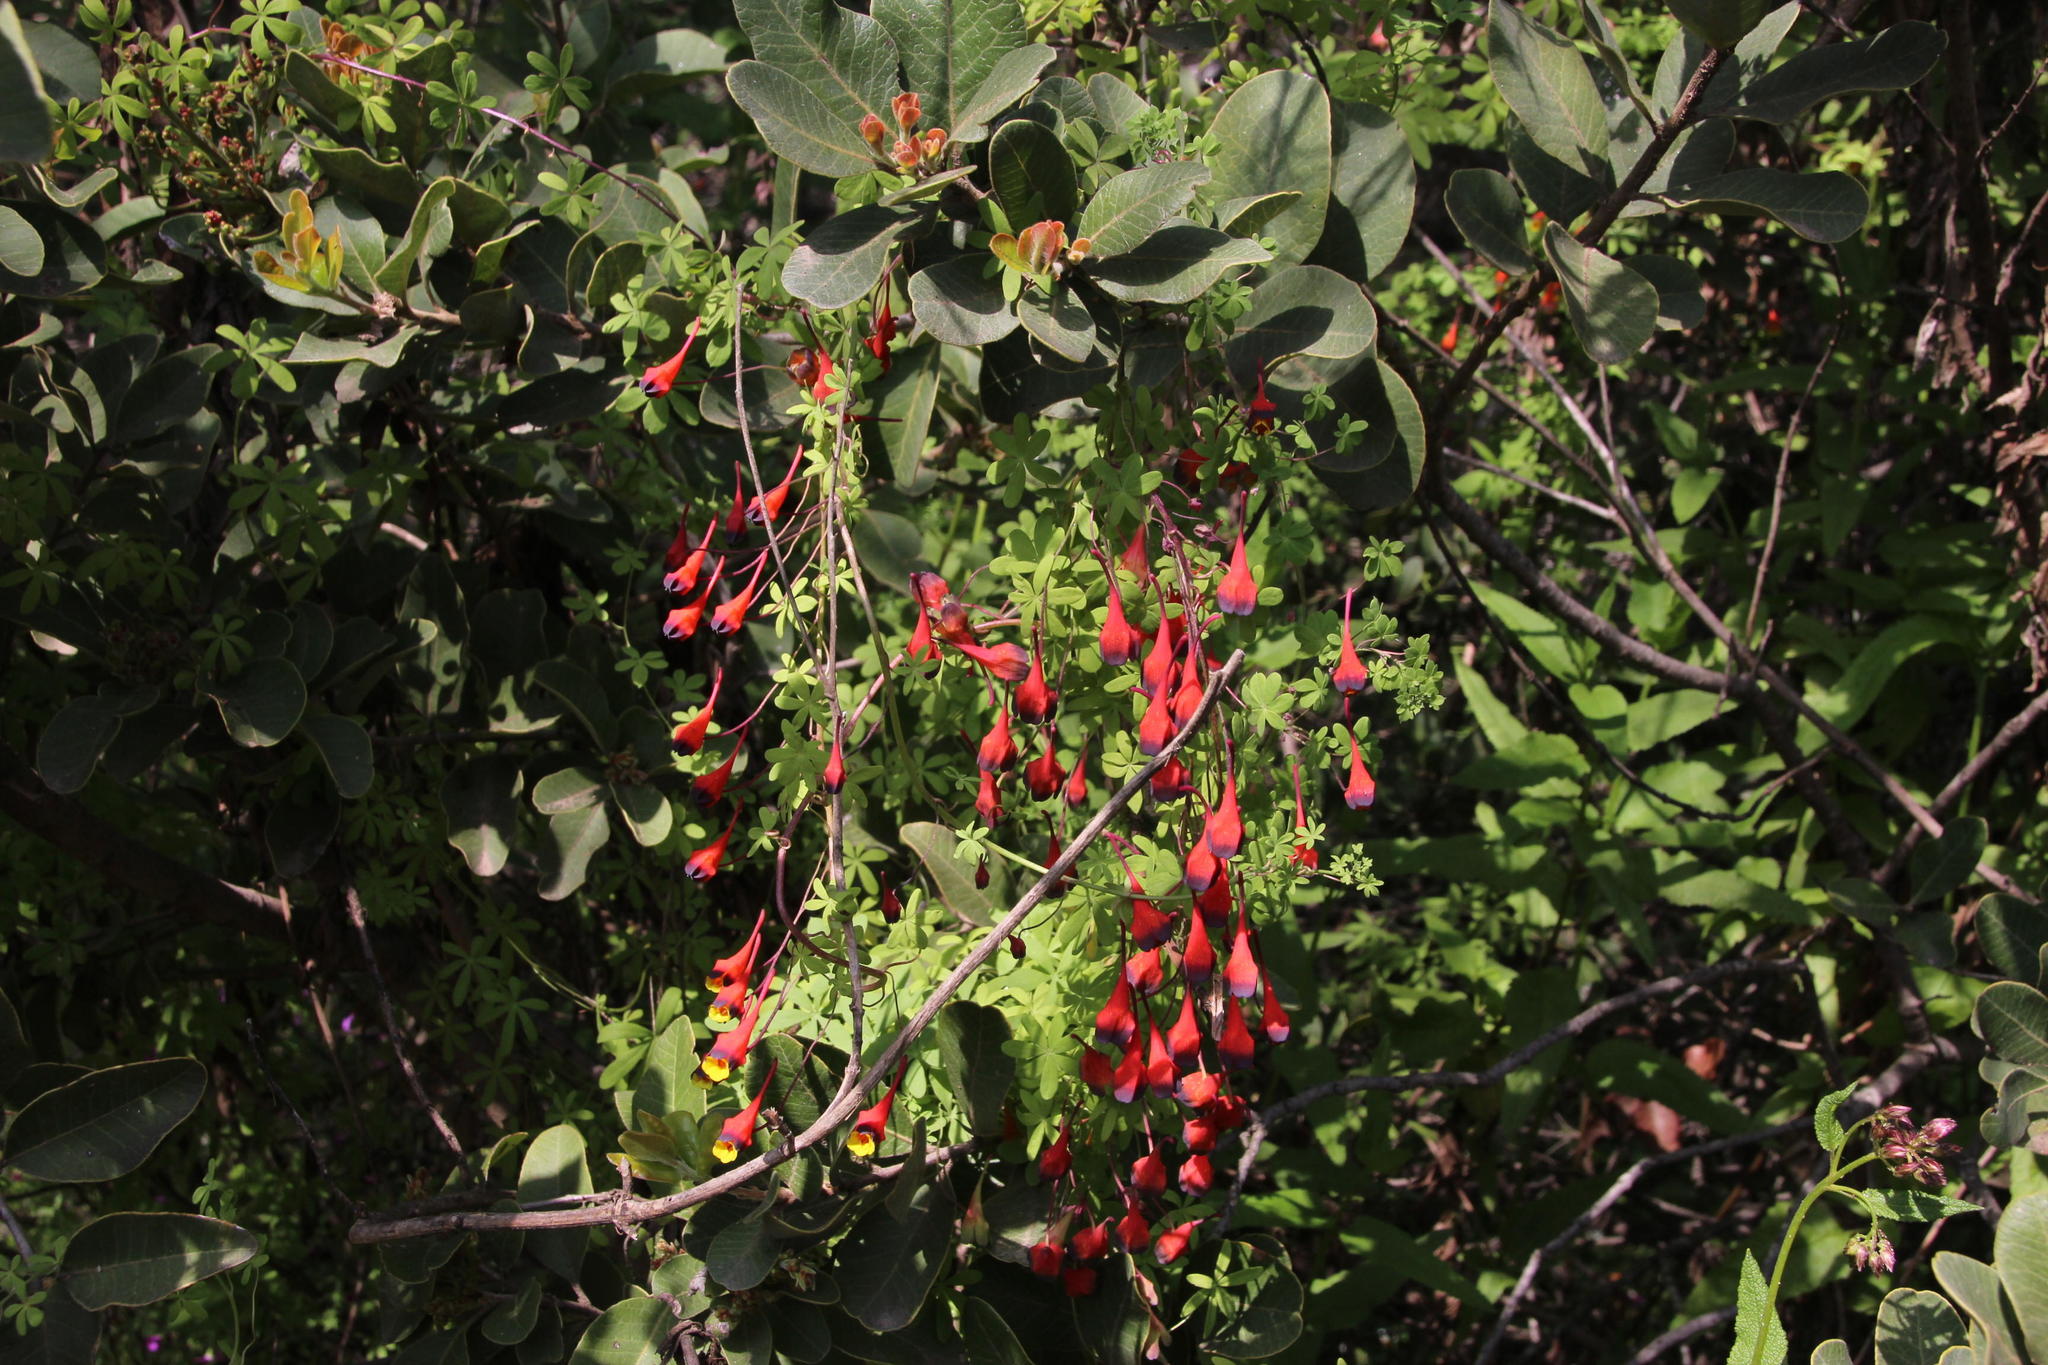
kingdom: Plantae
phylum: Tracheophyta
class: Magnoliopsida
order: Brassicales
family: Tropaeolaceae
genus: Tropaeolum
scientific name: Tropaeolum tricolor
